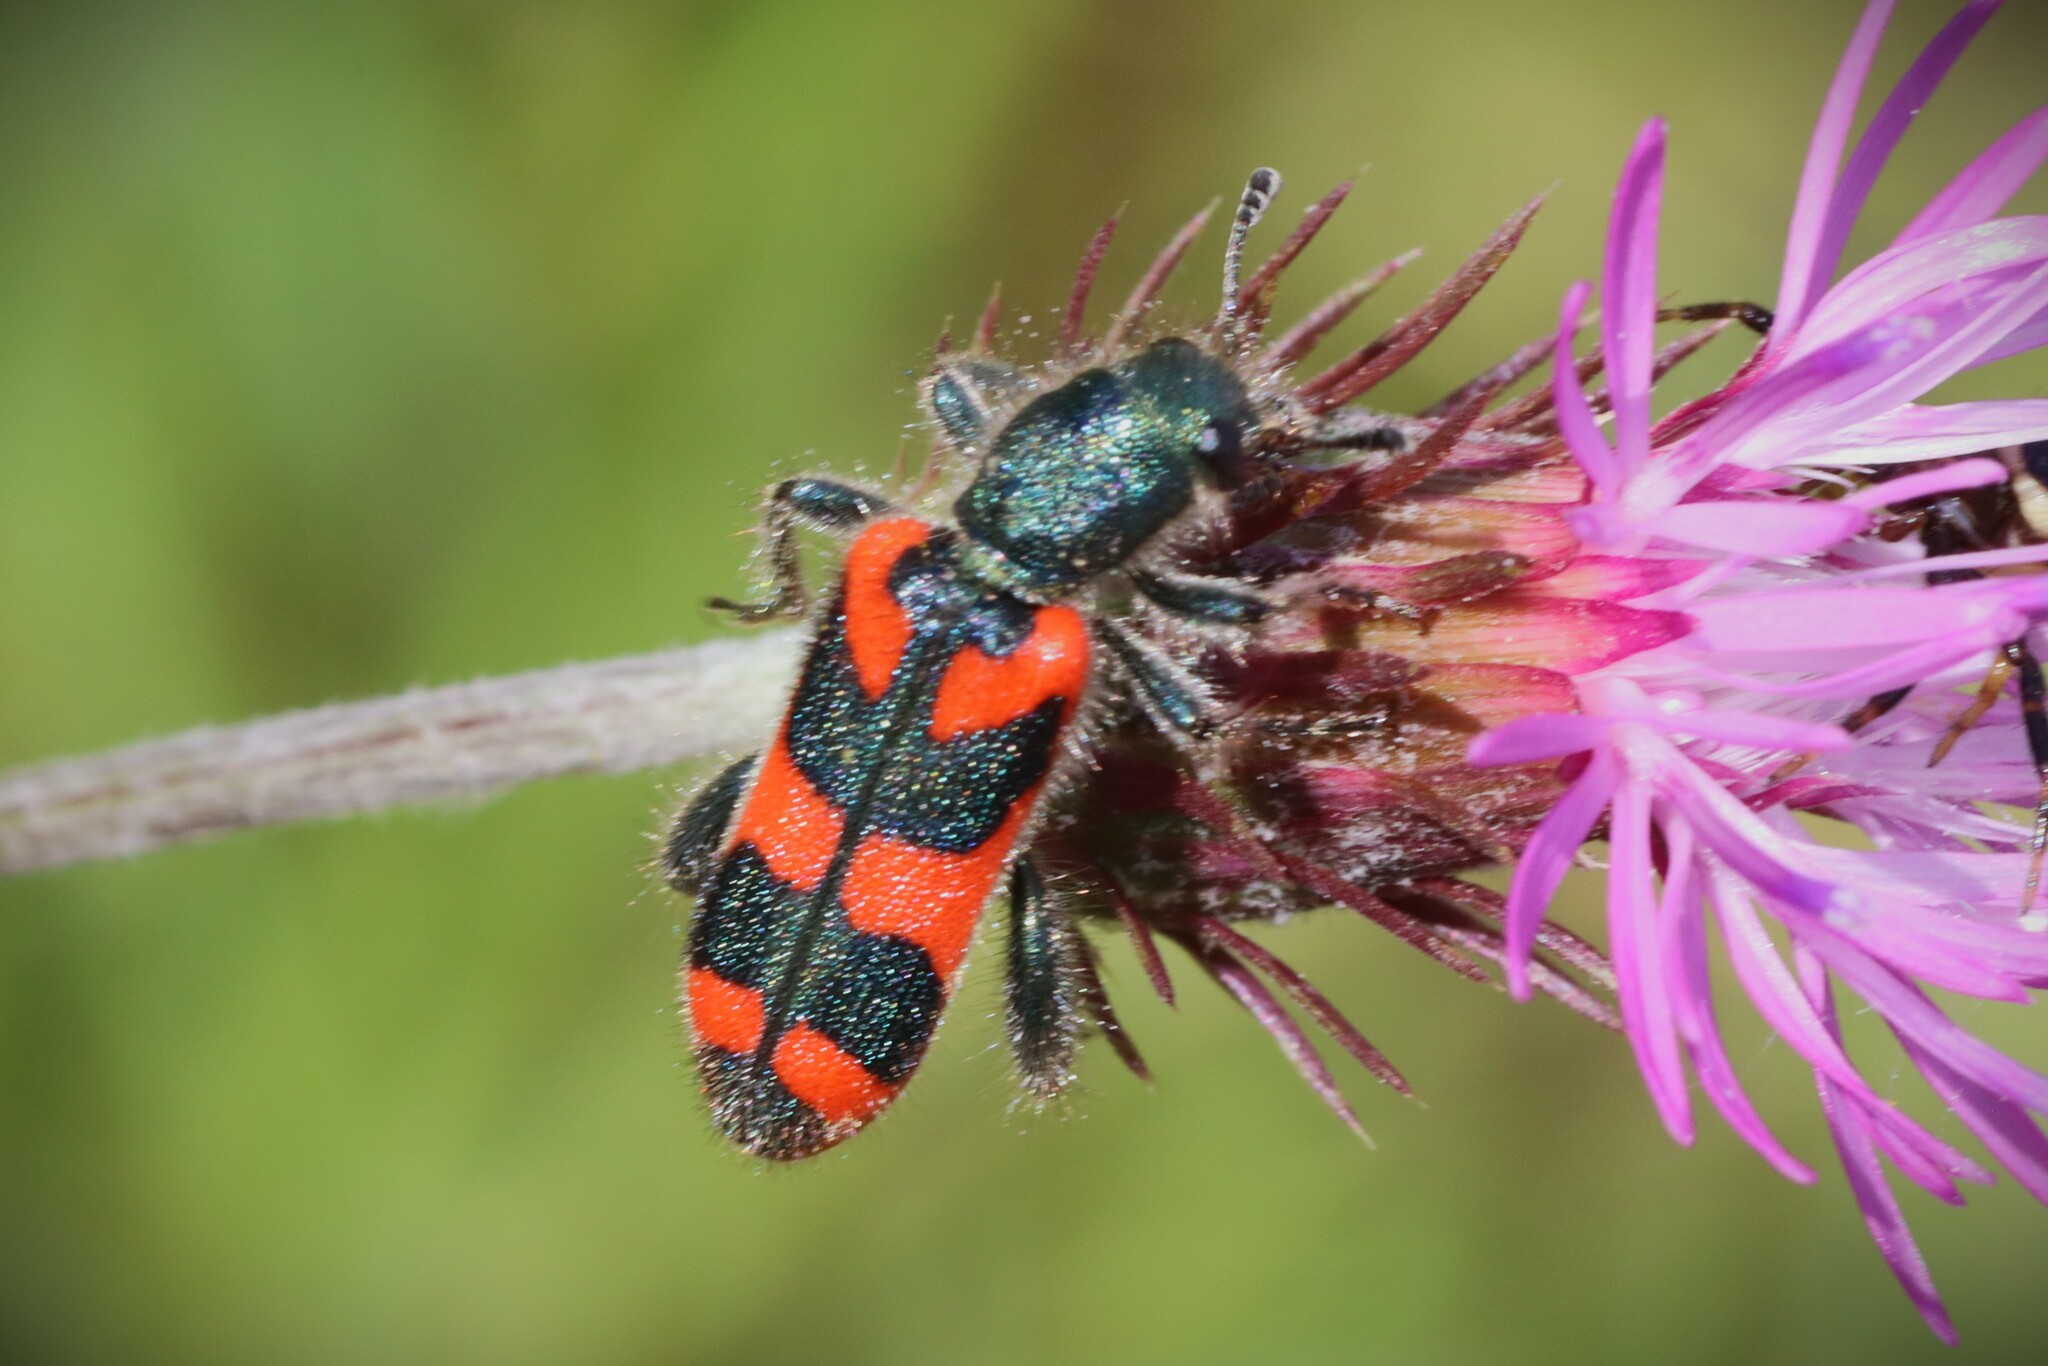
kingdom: Animalia
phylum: Arthropoda
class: Insecta
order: Coleoptera
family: Cleridae
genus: Trichodes
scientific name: Trichodes punctatus
